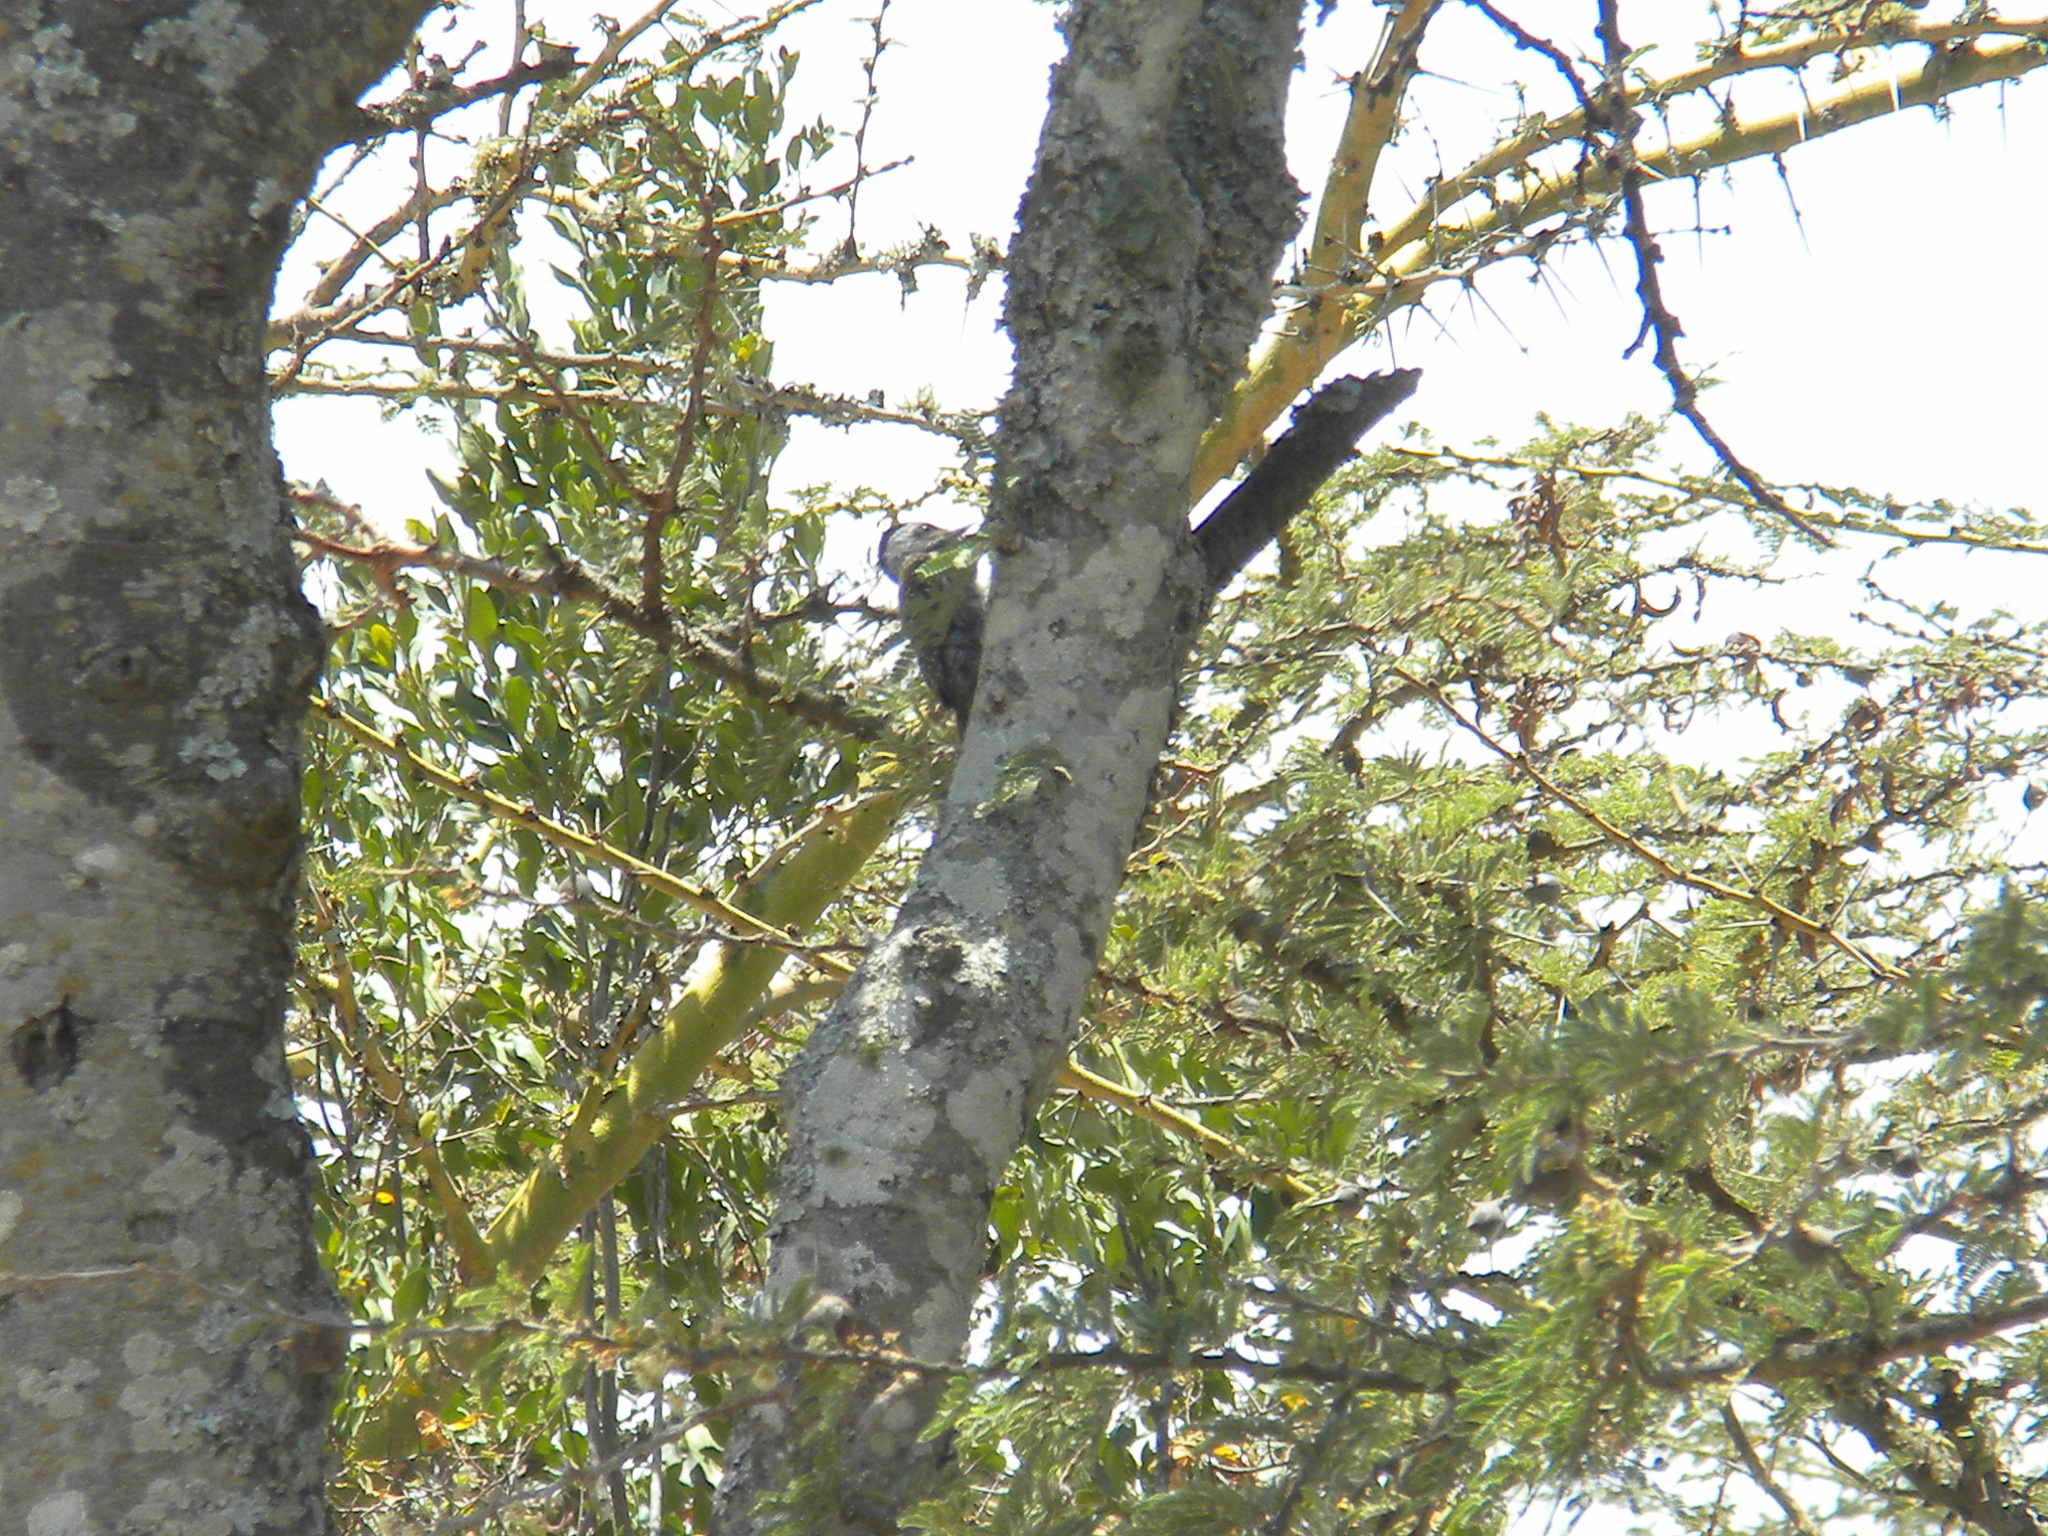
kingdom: Animalia
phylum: Chordata
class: Aves
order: Piciformes
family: Picidae
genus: Dendropicos
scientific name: Dendropicos fuscescens
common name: Cardinal woodpecker
